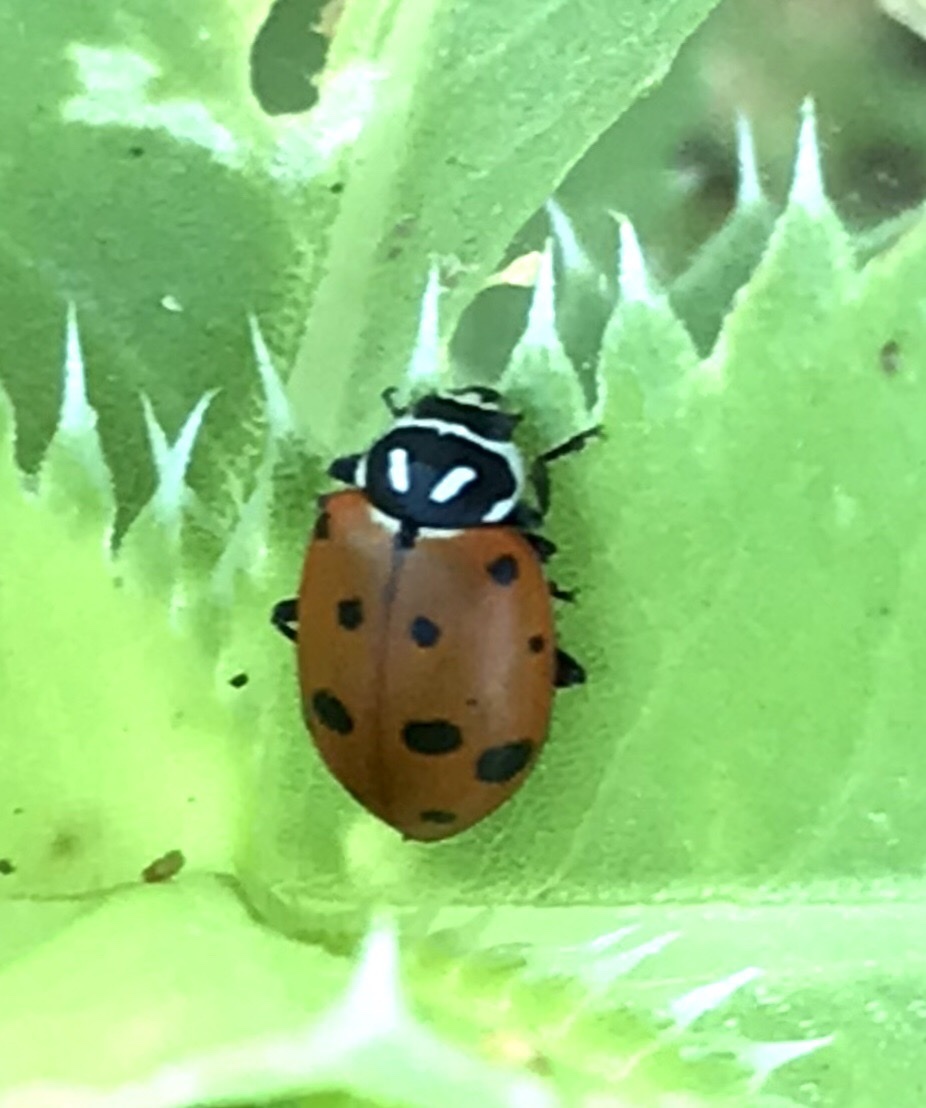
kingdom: Animalia
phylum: Arthropoda
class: Insecta
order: Coleoptera
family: Coccinellidae
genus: Hippodamia
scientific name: Hippodamia convergens
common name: Convergent lady beetle
